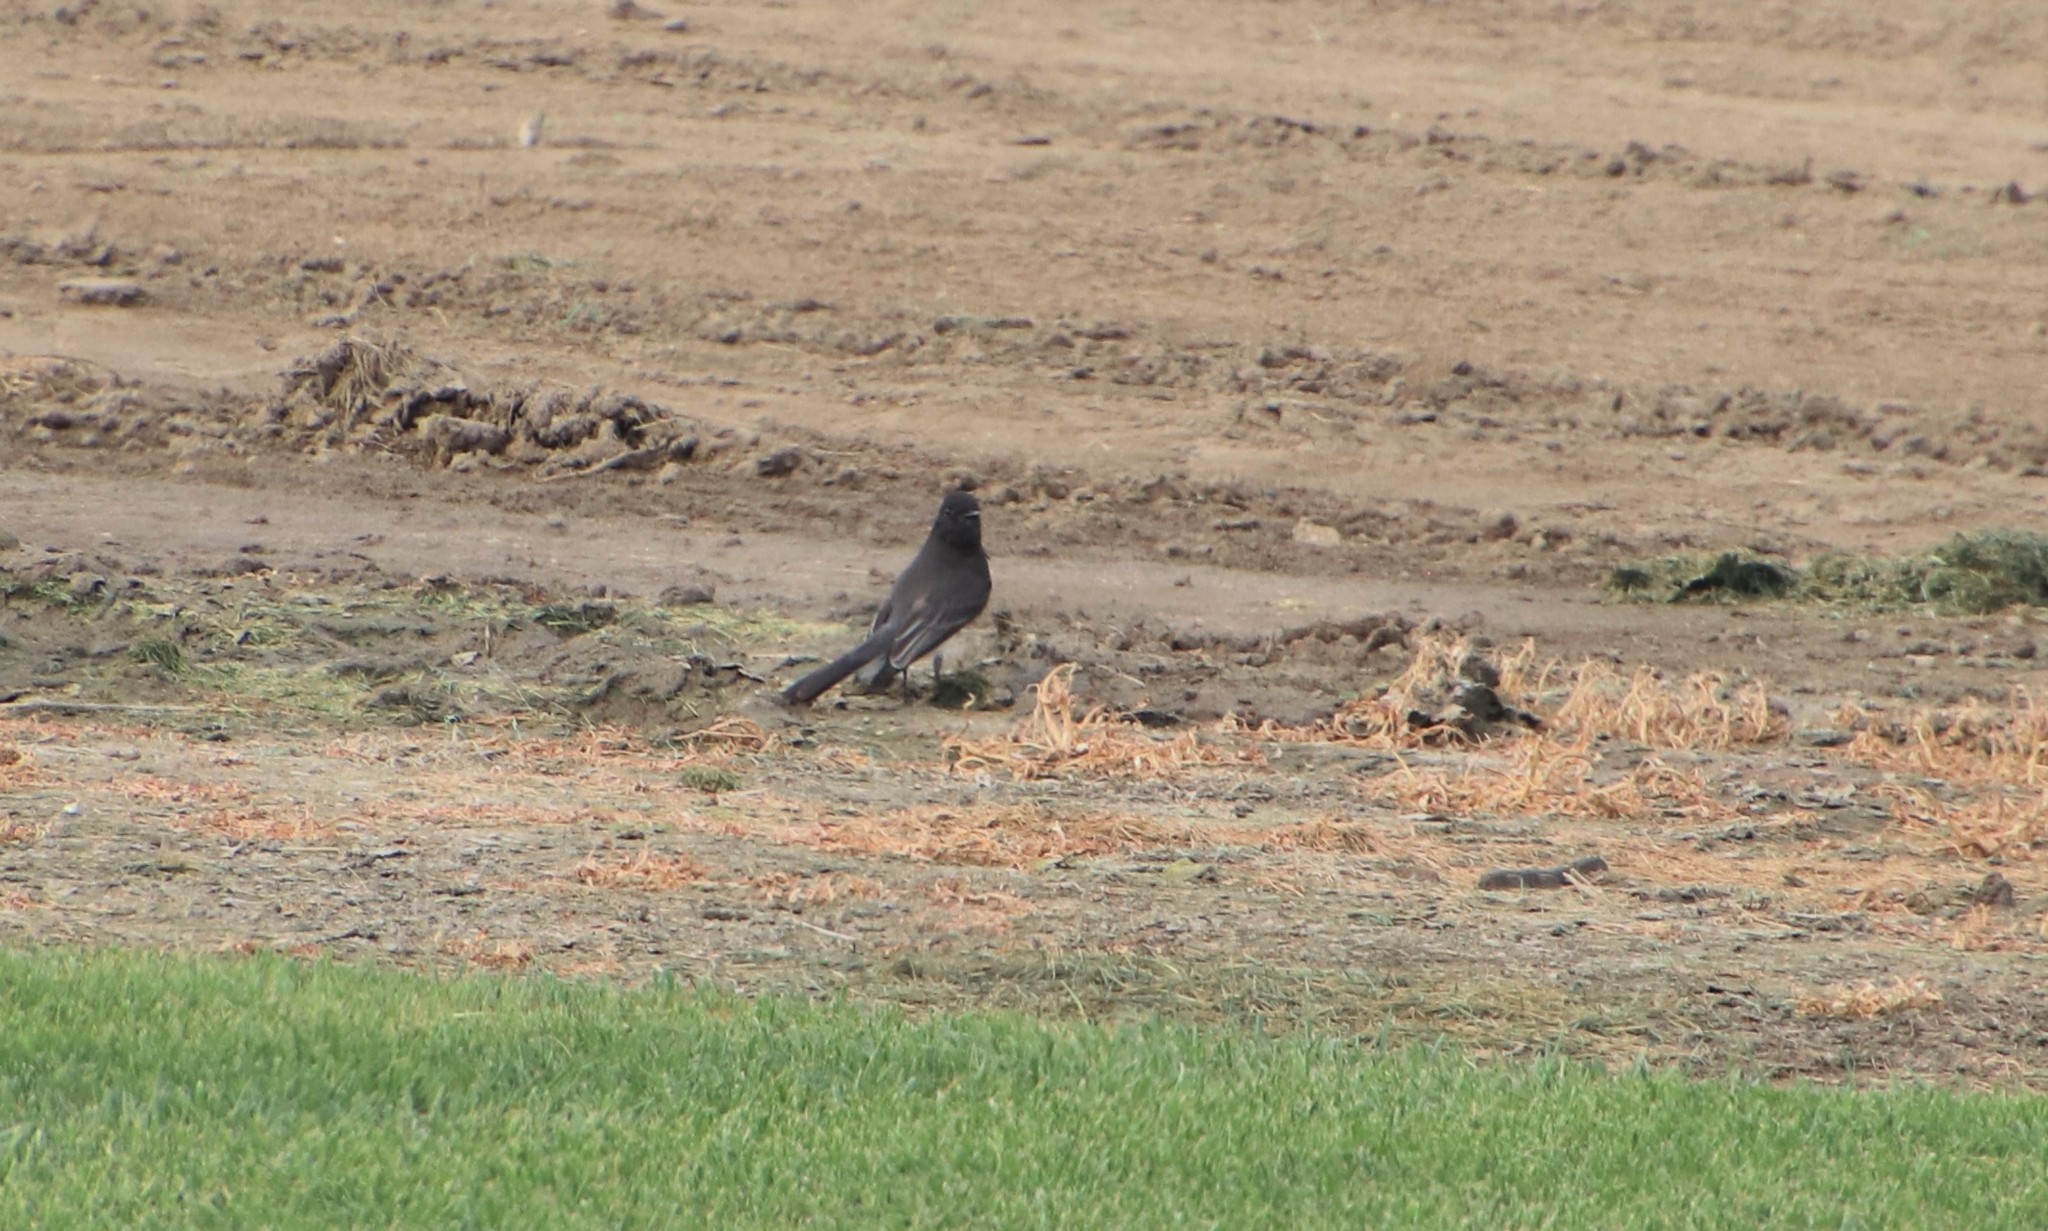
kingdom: Animalia
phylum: Chordata
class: Aves
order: Passeriformes
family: Tyrannidae
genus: Sayornis
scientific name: Sayornis nigricans
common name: Black phoebe
